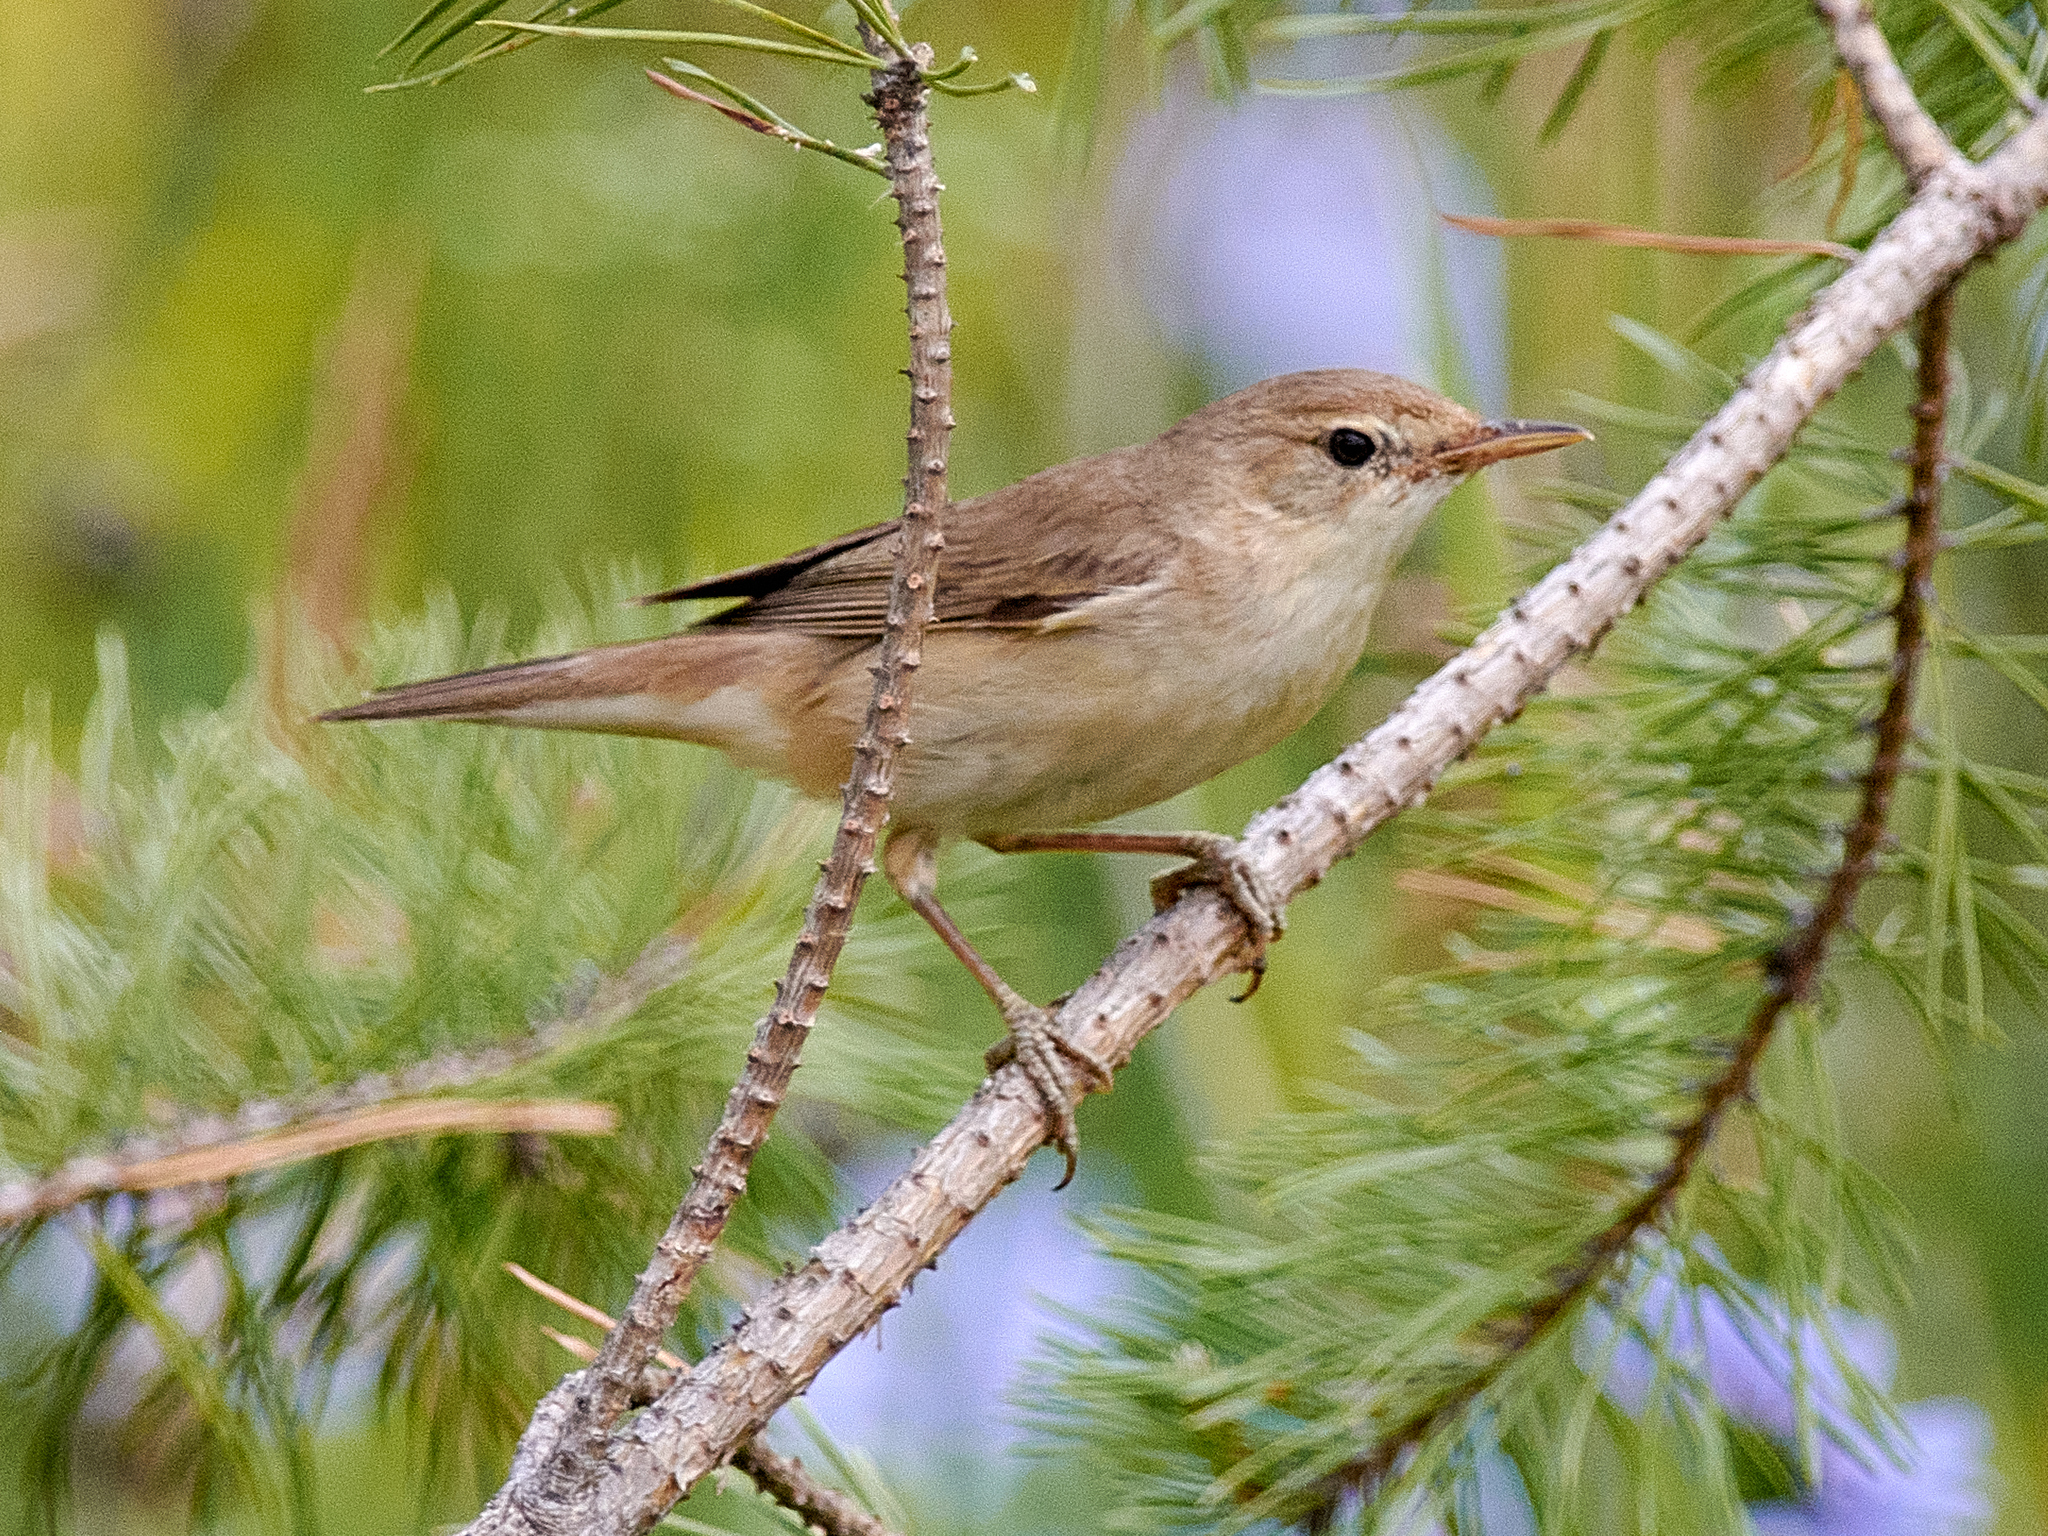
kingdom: Animalia
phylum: Chordata
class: Aves
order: Passeriformes
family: Acrocephalidae
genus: Iduna
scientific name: Iduna caligata
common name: Booted warbler
